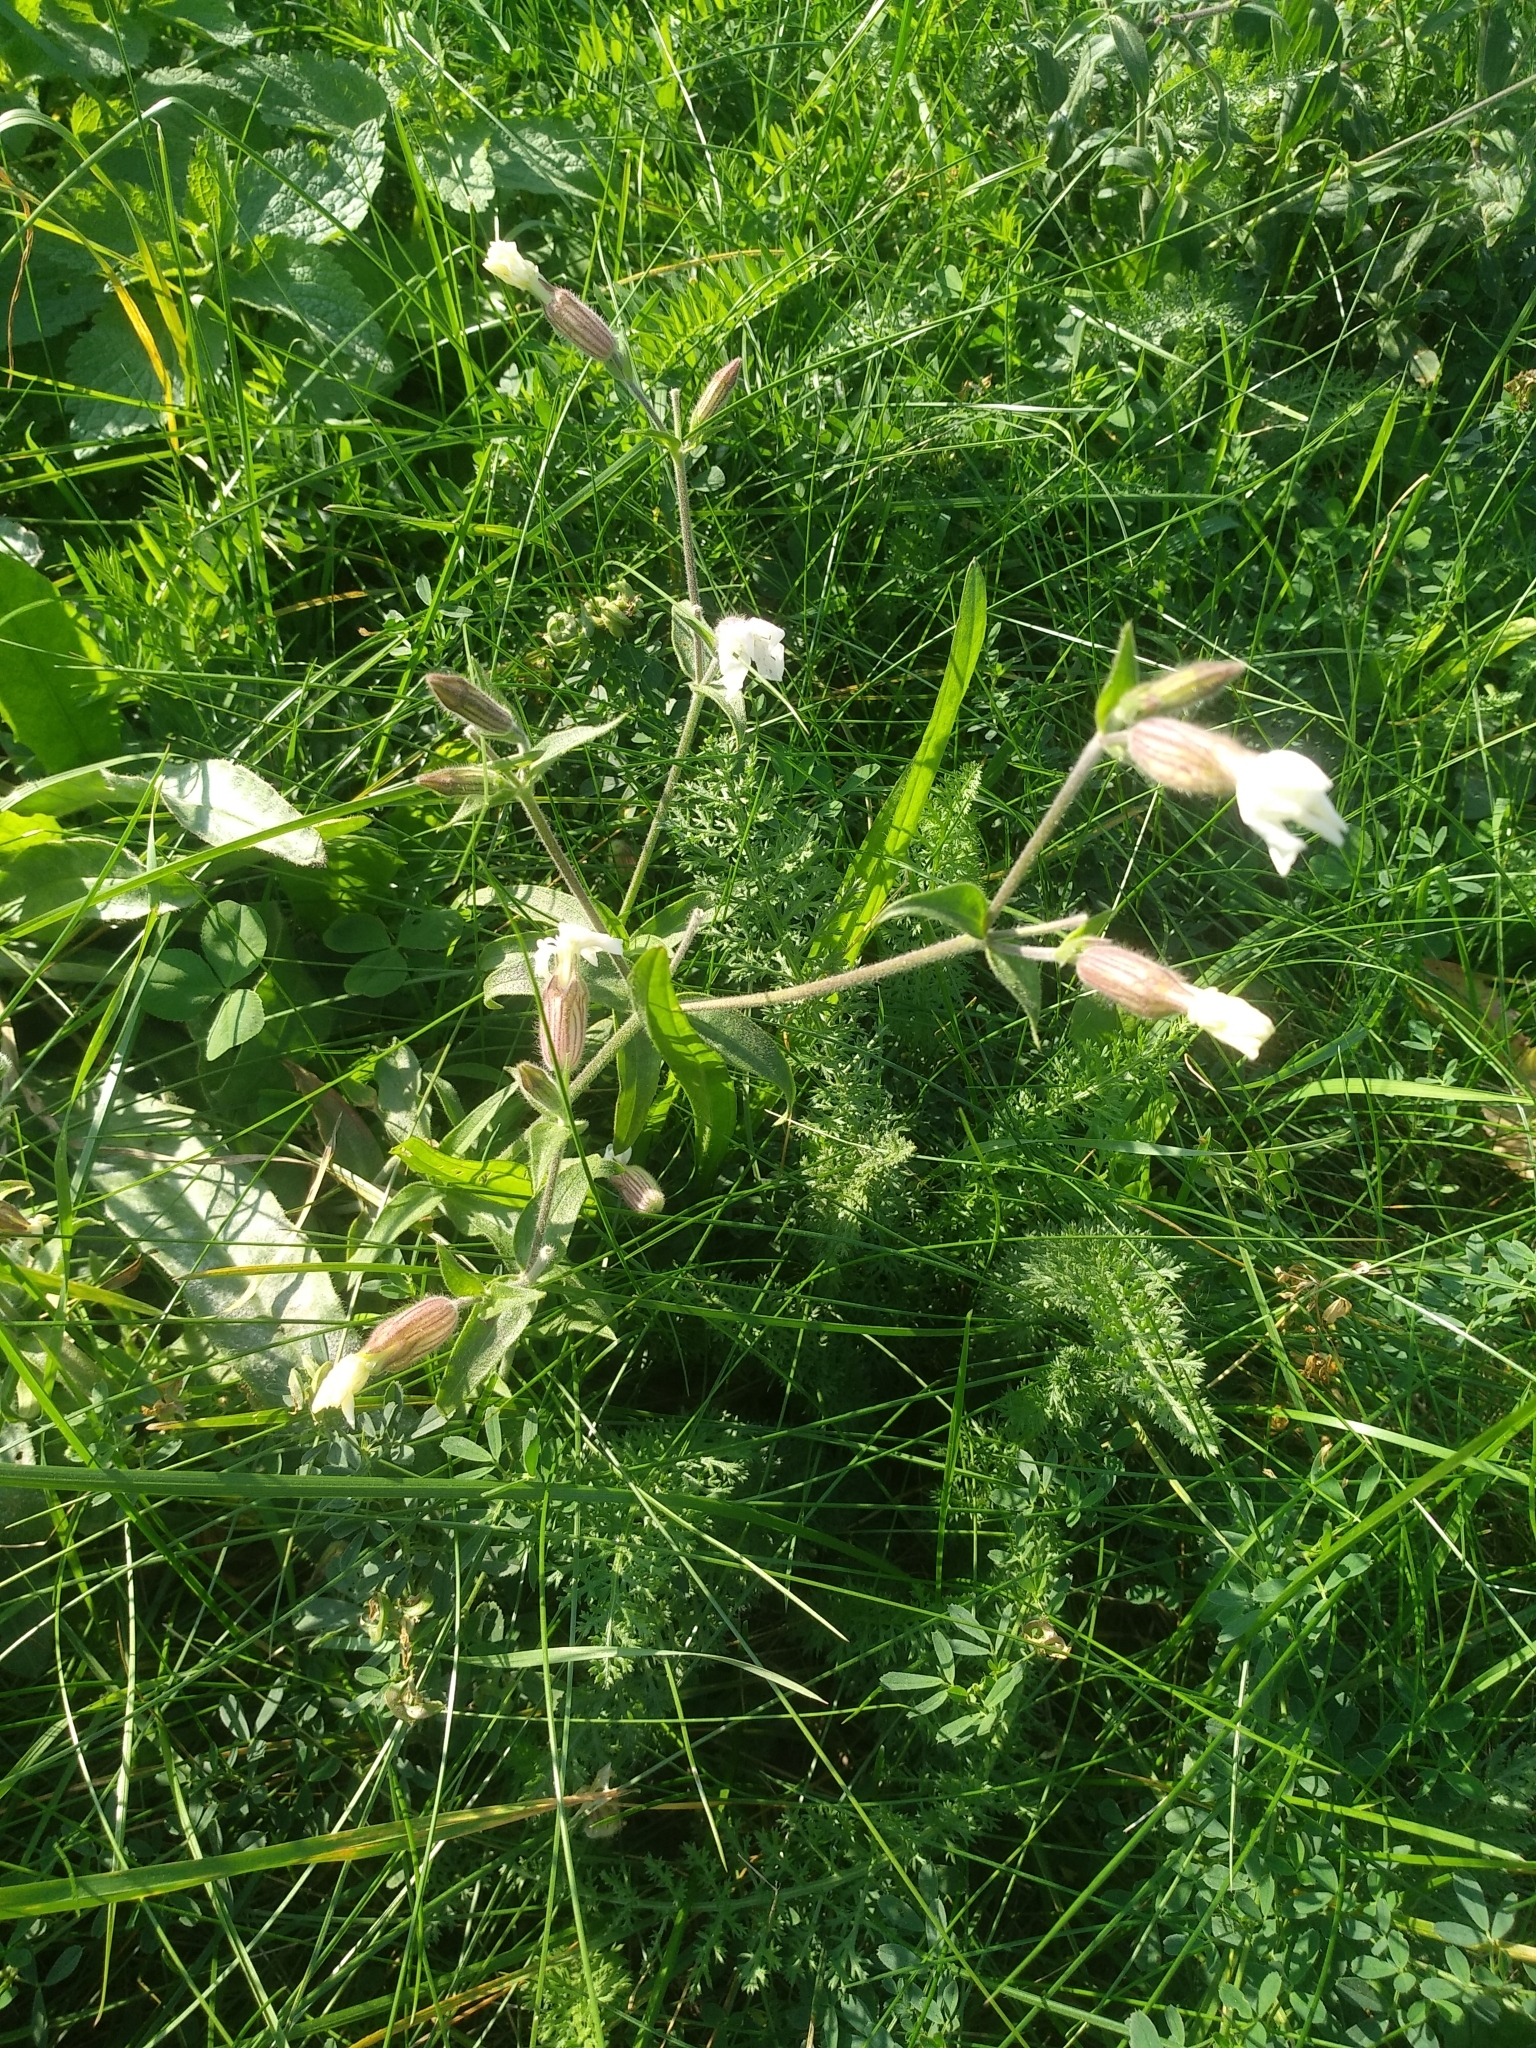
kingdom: Plantae
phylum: Tracheophyta
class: Magnoliopsida
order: Caryophyllales
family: Caryophyllaceae
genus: Silene
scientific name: Silene latifolia
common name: White campion
